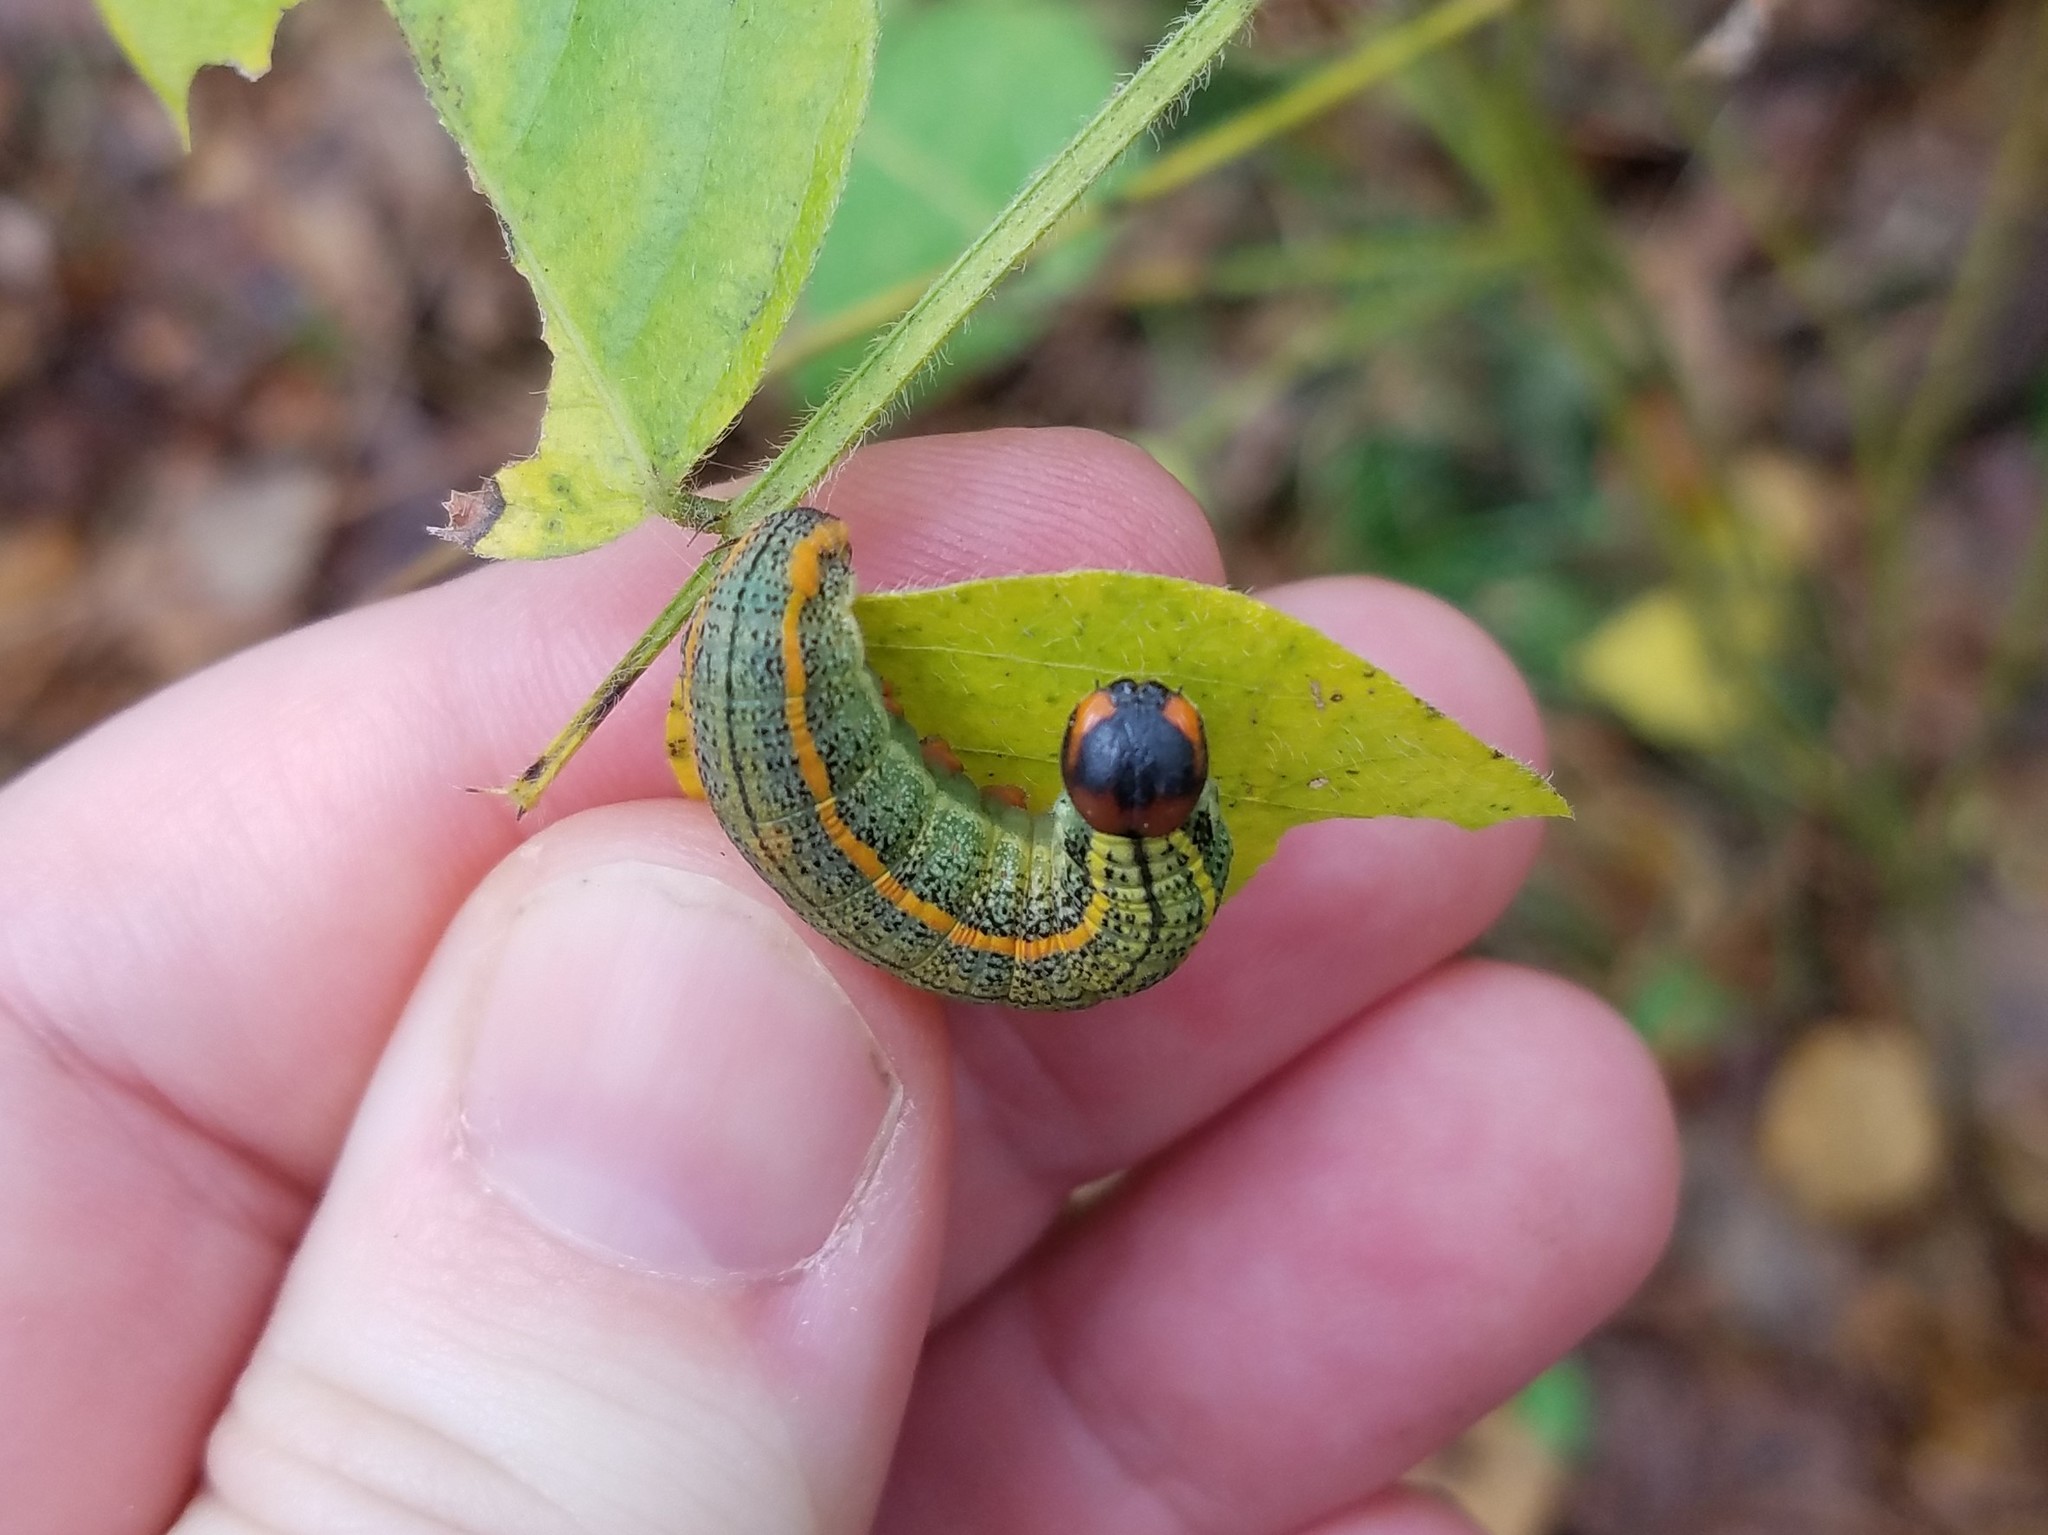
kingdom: Animalia
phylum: Arthropoda
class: Insecta
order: Lepidoptera
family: Hesperiidae
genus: Urbanus
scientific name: Urbanus proteus
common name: Long-tailed skipper
